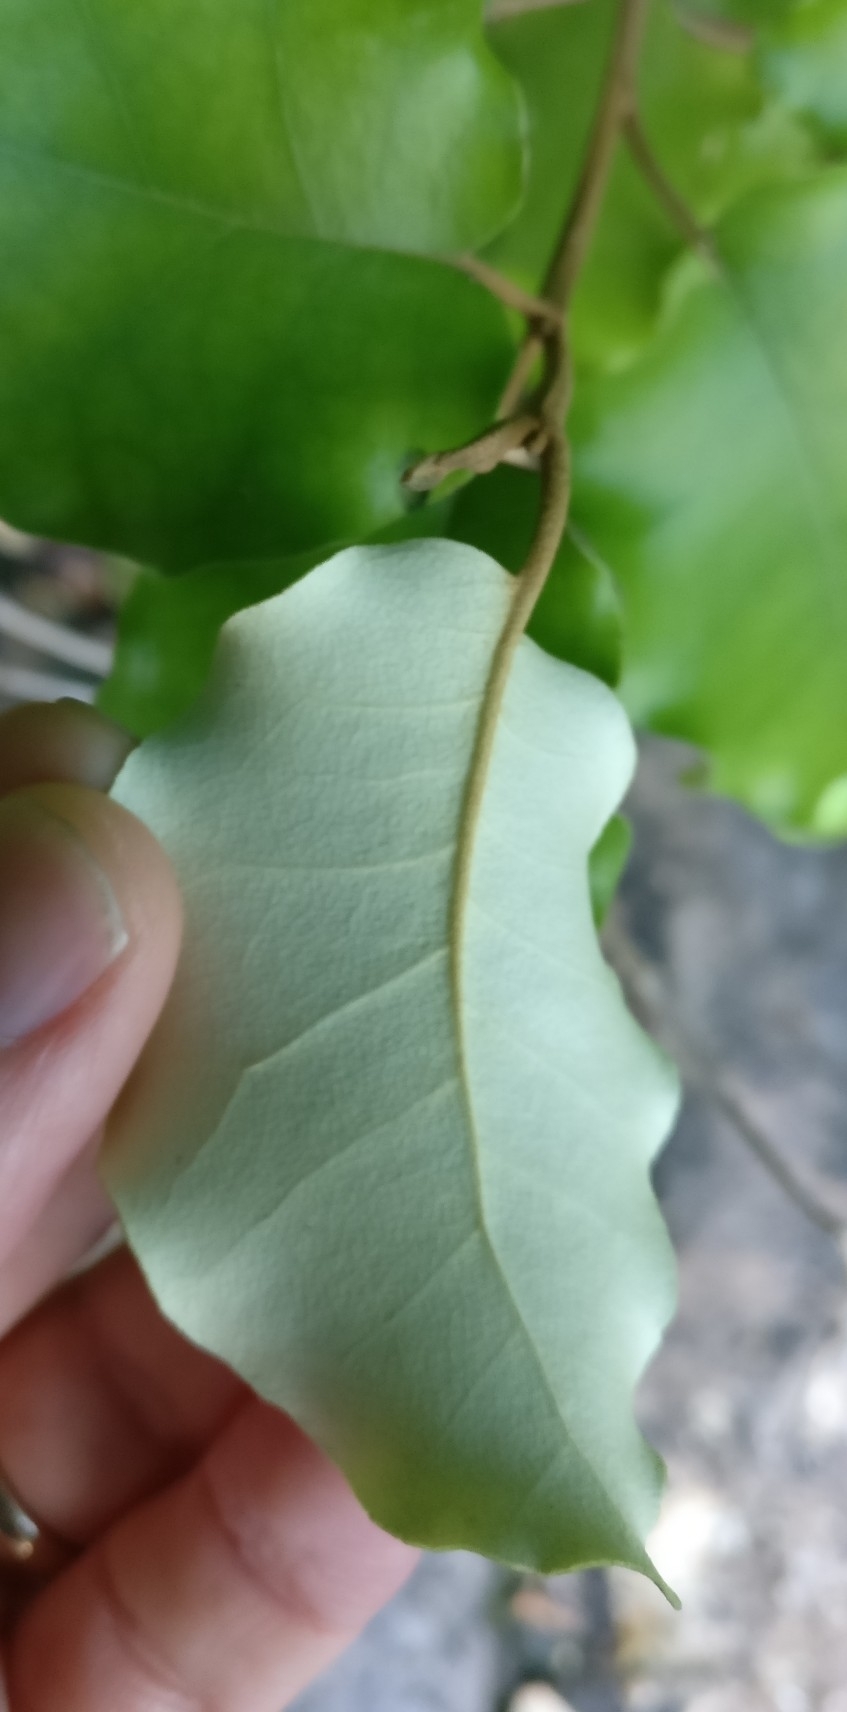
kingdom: Plantae
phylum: Tracheophyta
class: Magnoliopsida
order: Asterales
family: Asteraceae
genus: Olearia
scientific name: Olearia paniculata
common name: Akiraho
